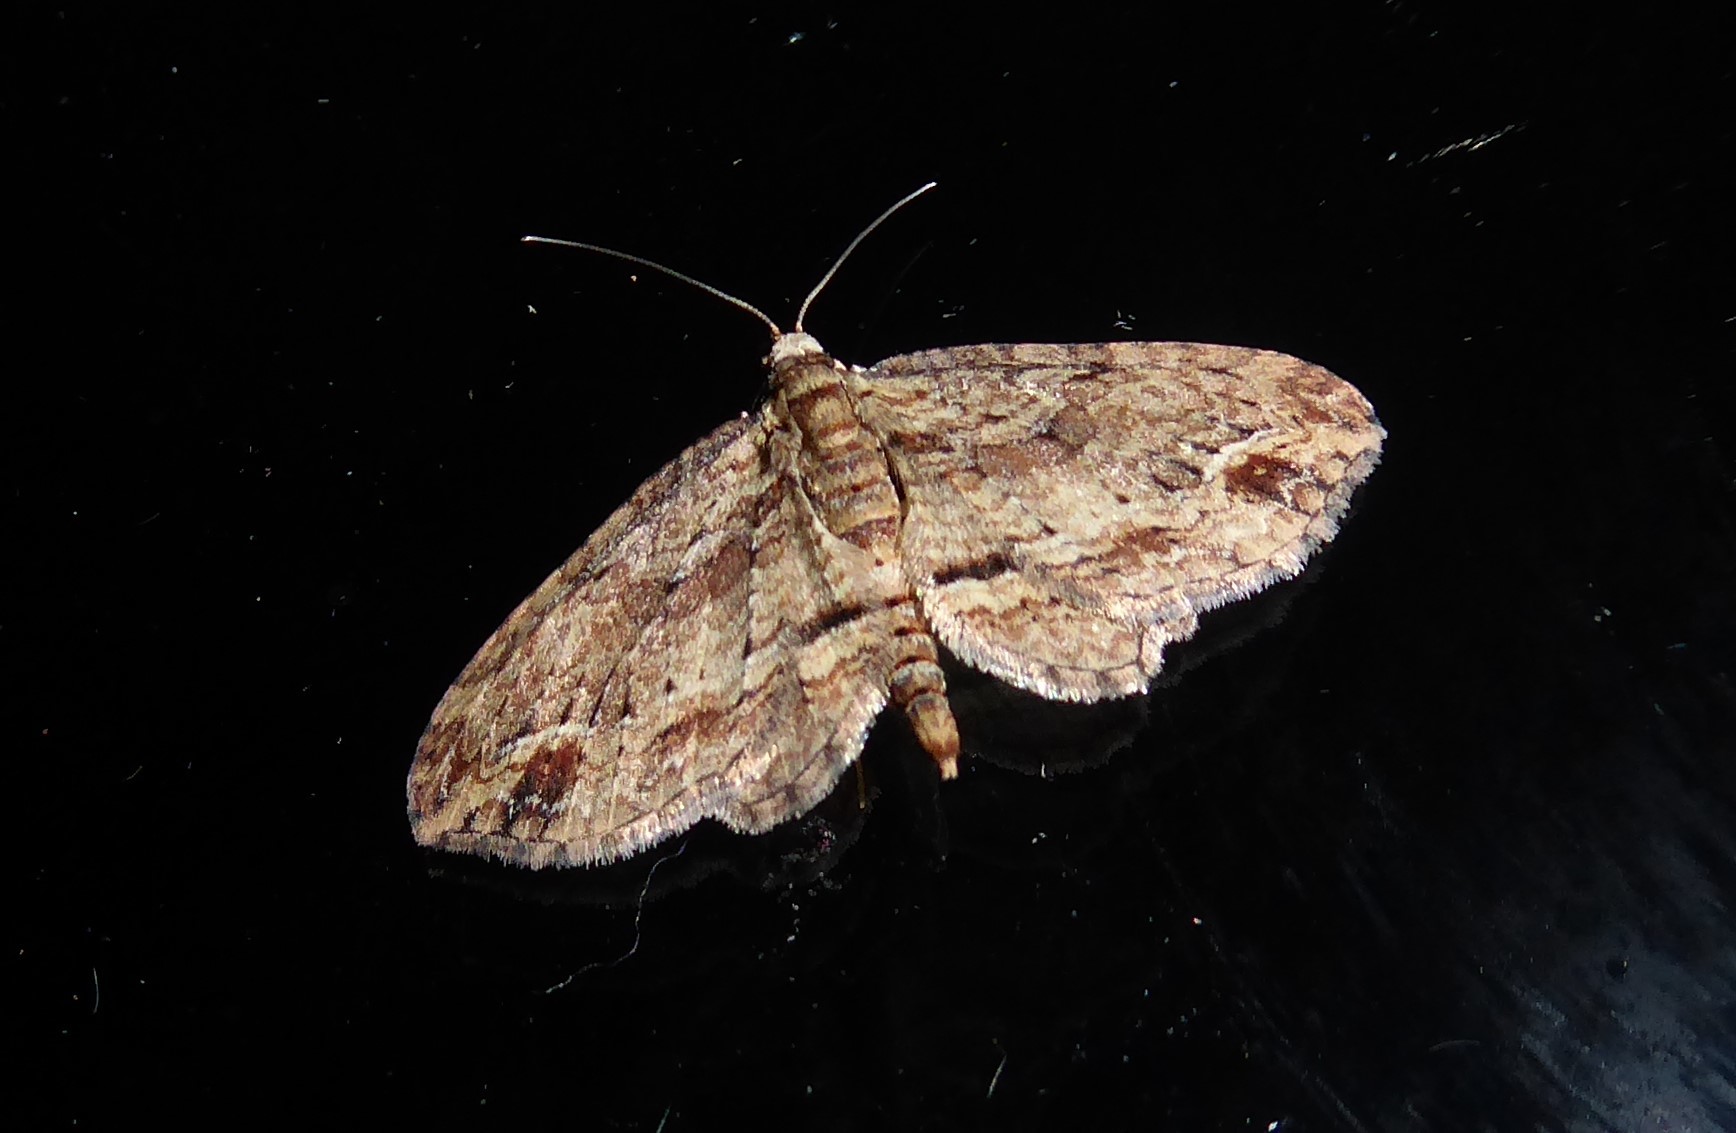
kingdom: Animalia
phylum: Arthropoda
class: Insecta
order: Lepidoptera
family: Geometridae
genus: Chloroclystis
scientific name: Chloroclystis filata
